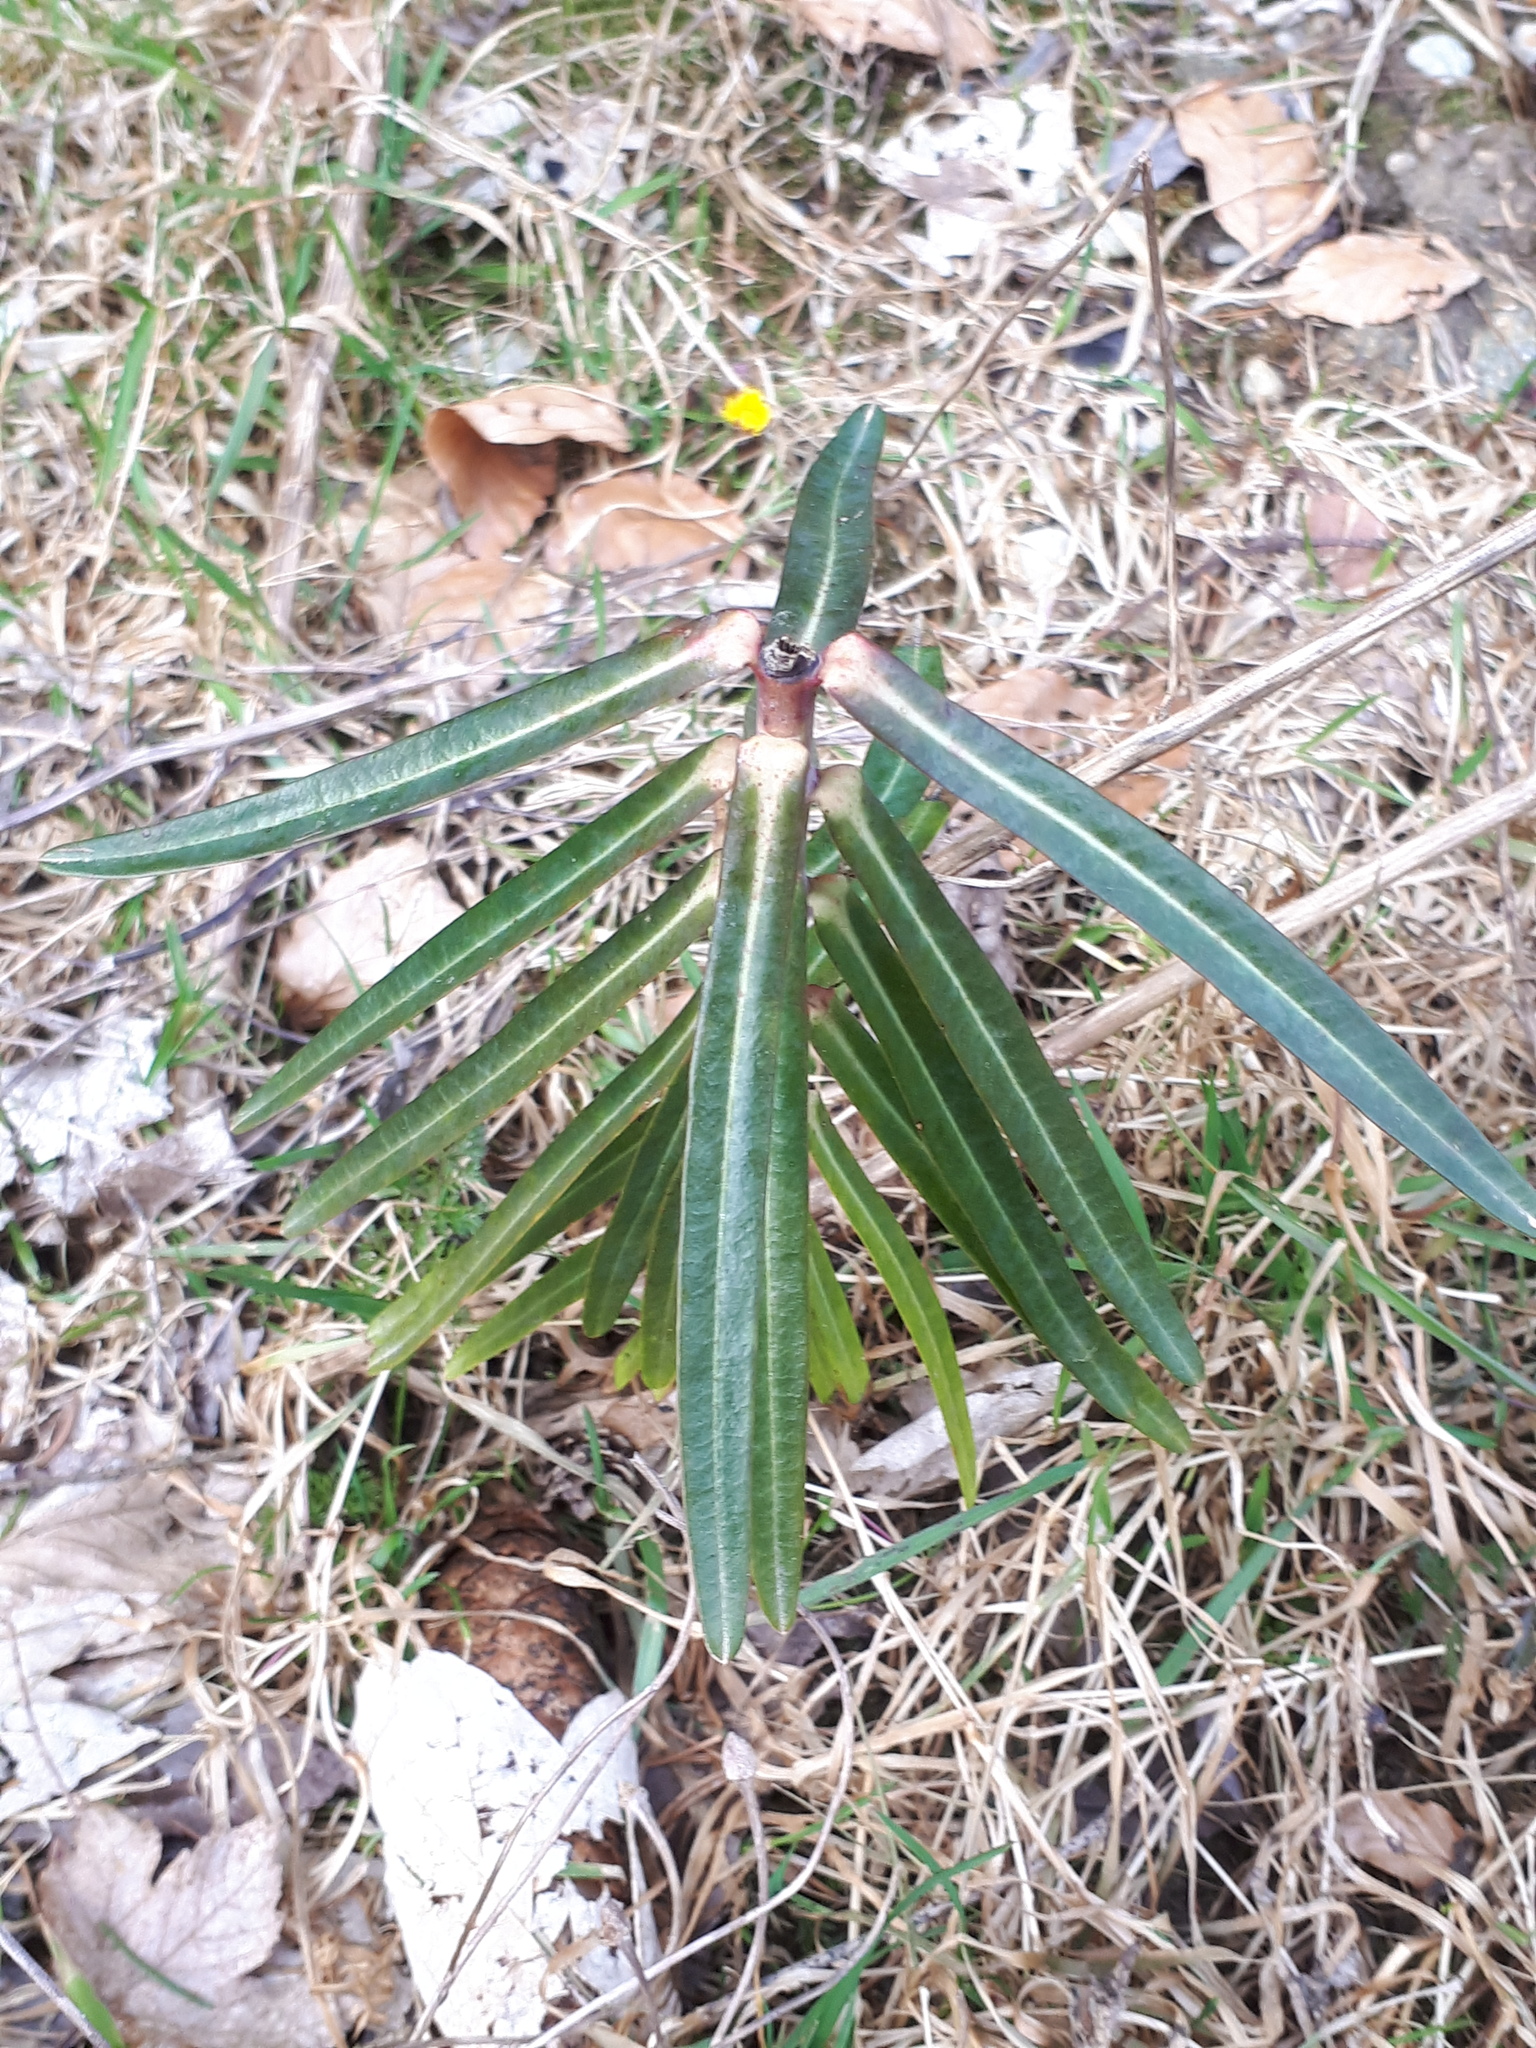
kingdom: Plantae
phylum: Tracheophyta
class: Magnoliopsida
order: Malpighiales
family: Euphorbiaceae
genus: Euphorbia
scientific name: Euphorbia lathyris
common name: Caper spurge
